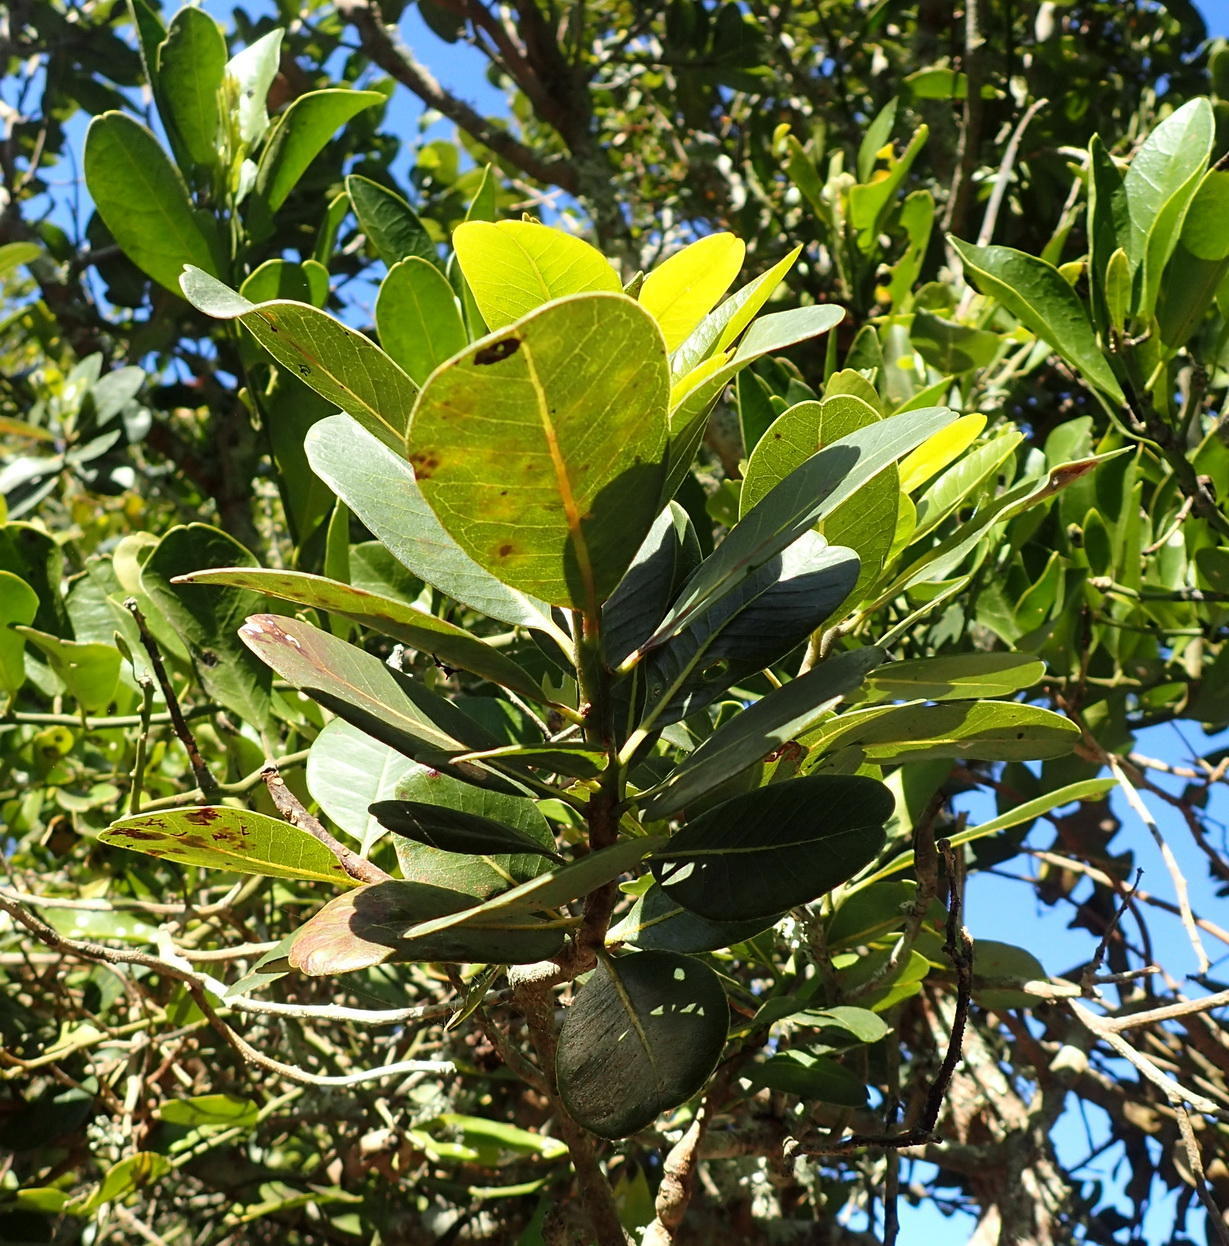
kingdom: Plantae
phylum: Tracheophyta
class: Magnoliopsida
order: Ericales
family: Sapotaceae
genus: Sideroxylon
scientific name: Sideroxylon inerme
